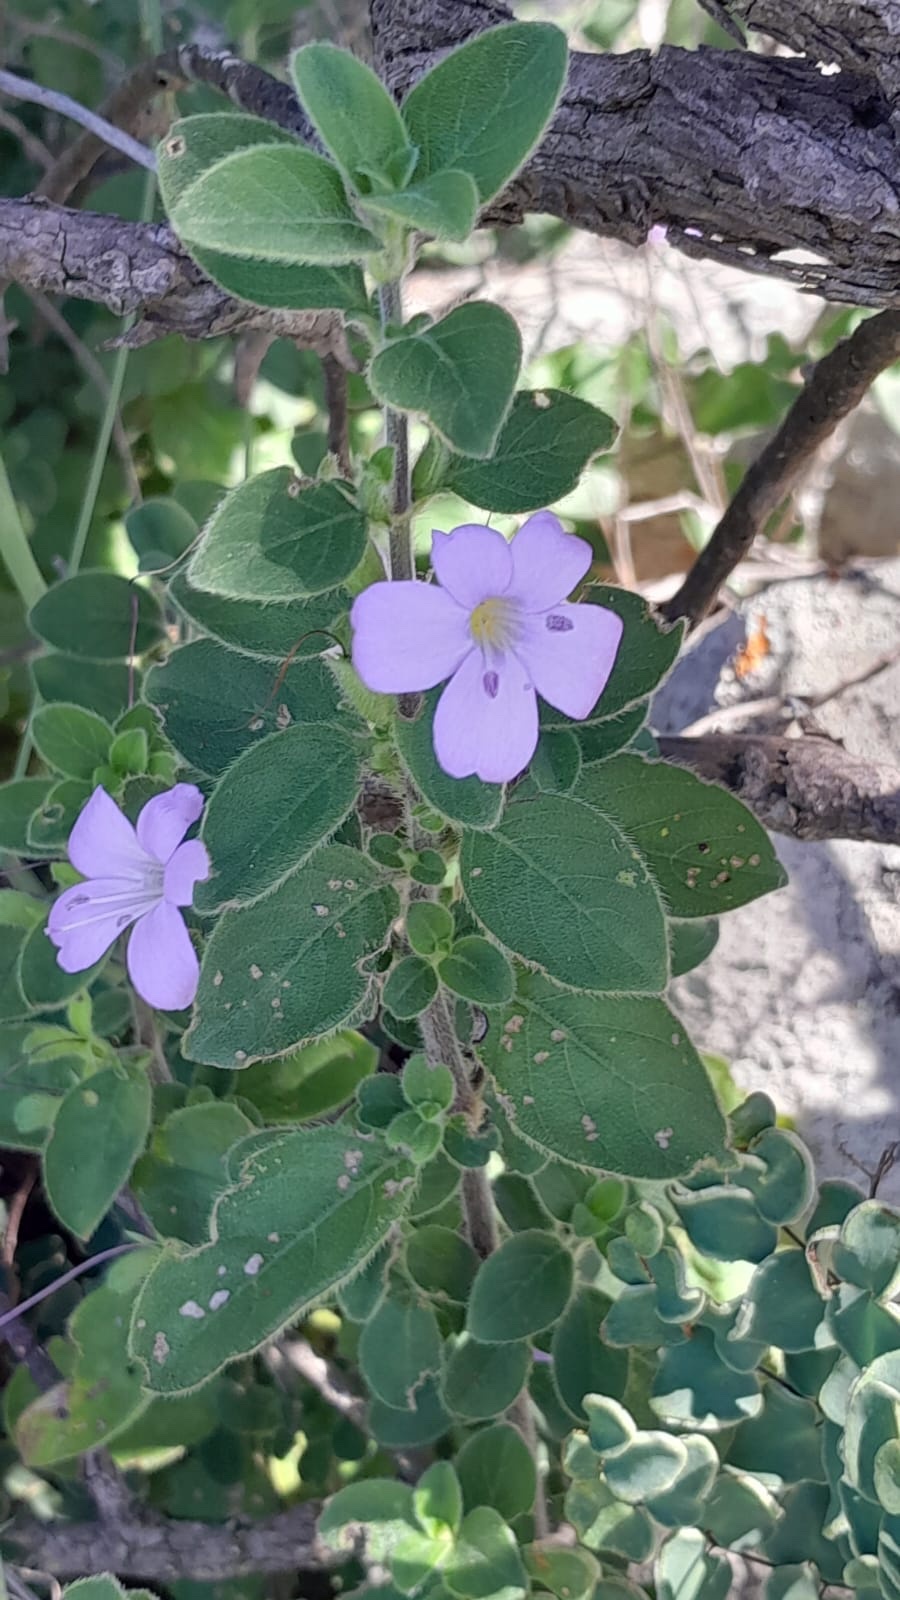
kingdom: Plantae
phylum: Tracheophyta
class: Magnoliopsida
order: Lamiales
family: Acanthaceae
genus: Barleria
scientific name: Barleria obtusa
